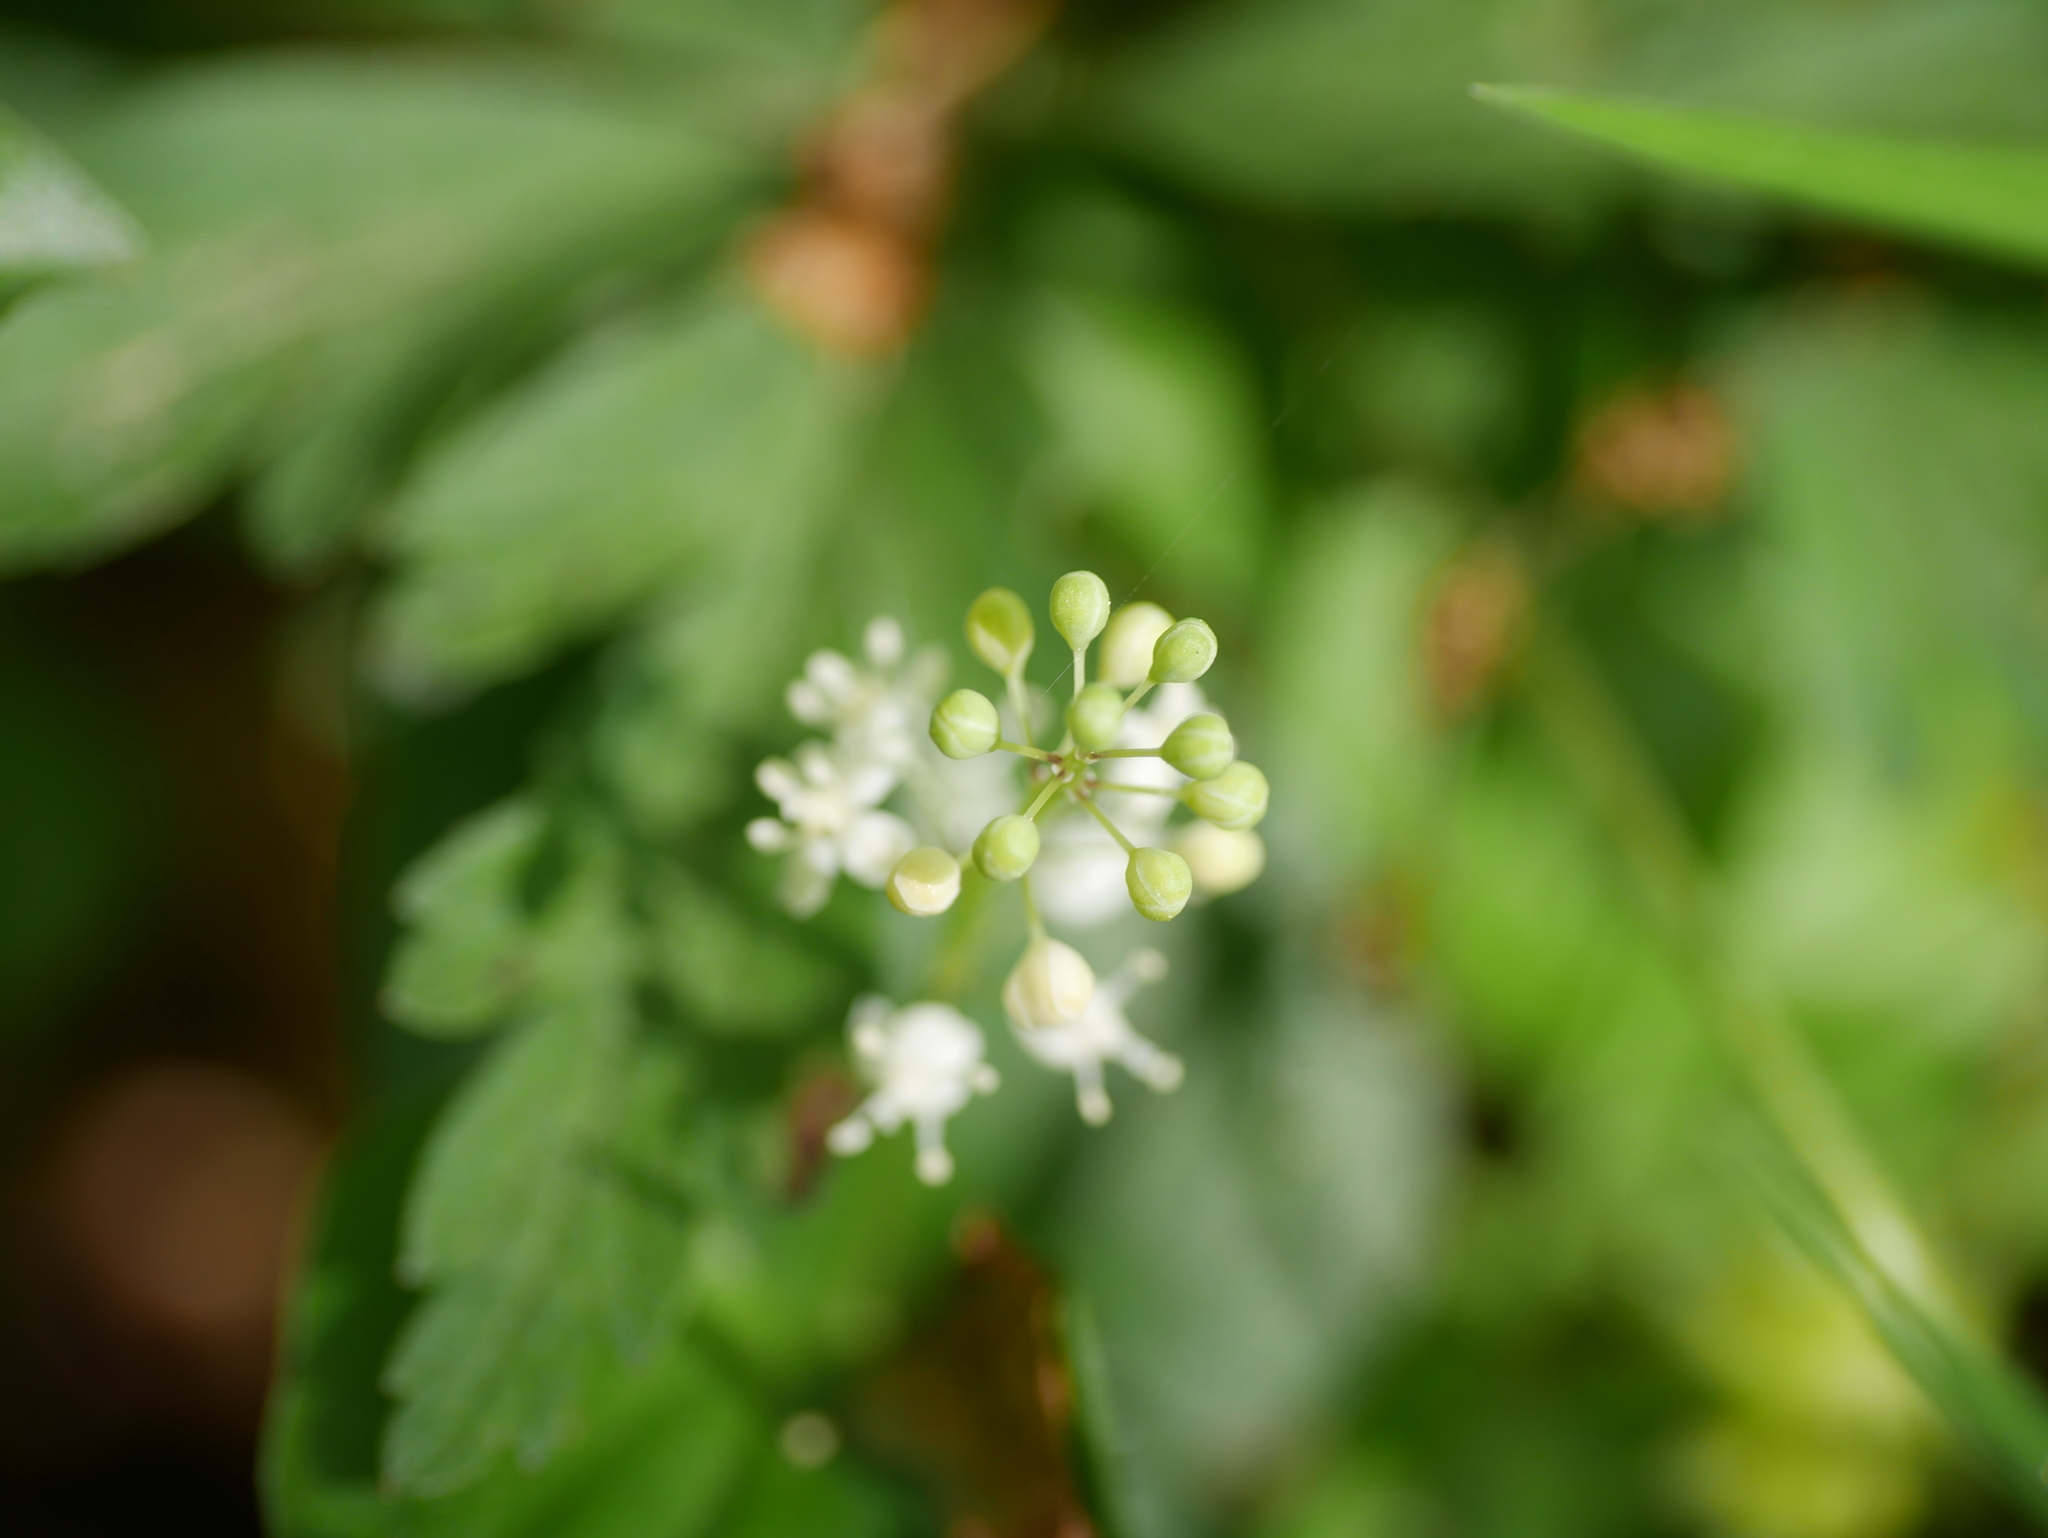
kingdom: Plantae
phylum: Tracheophyta
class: Liliopsida
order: Asparagales
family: Asparagaceae
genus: Maianthemum
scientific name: Maianthemum bifolium
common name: May lily
